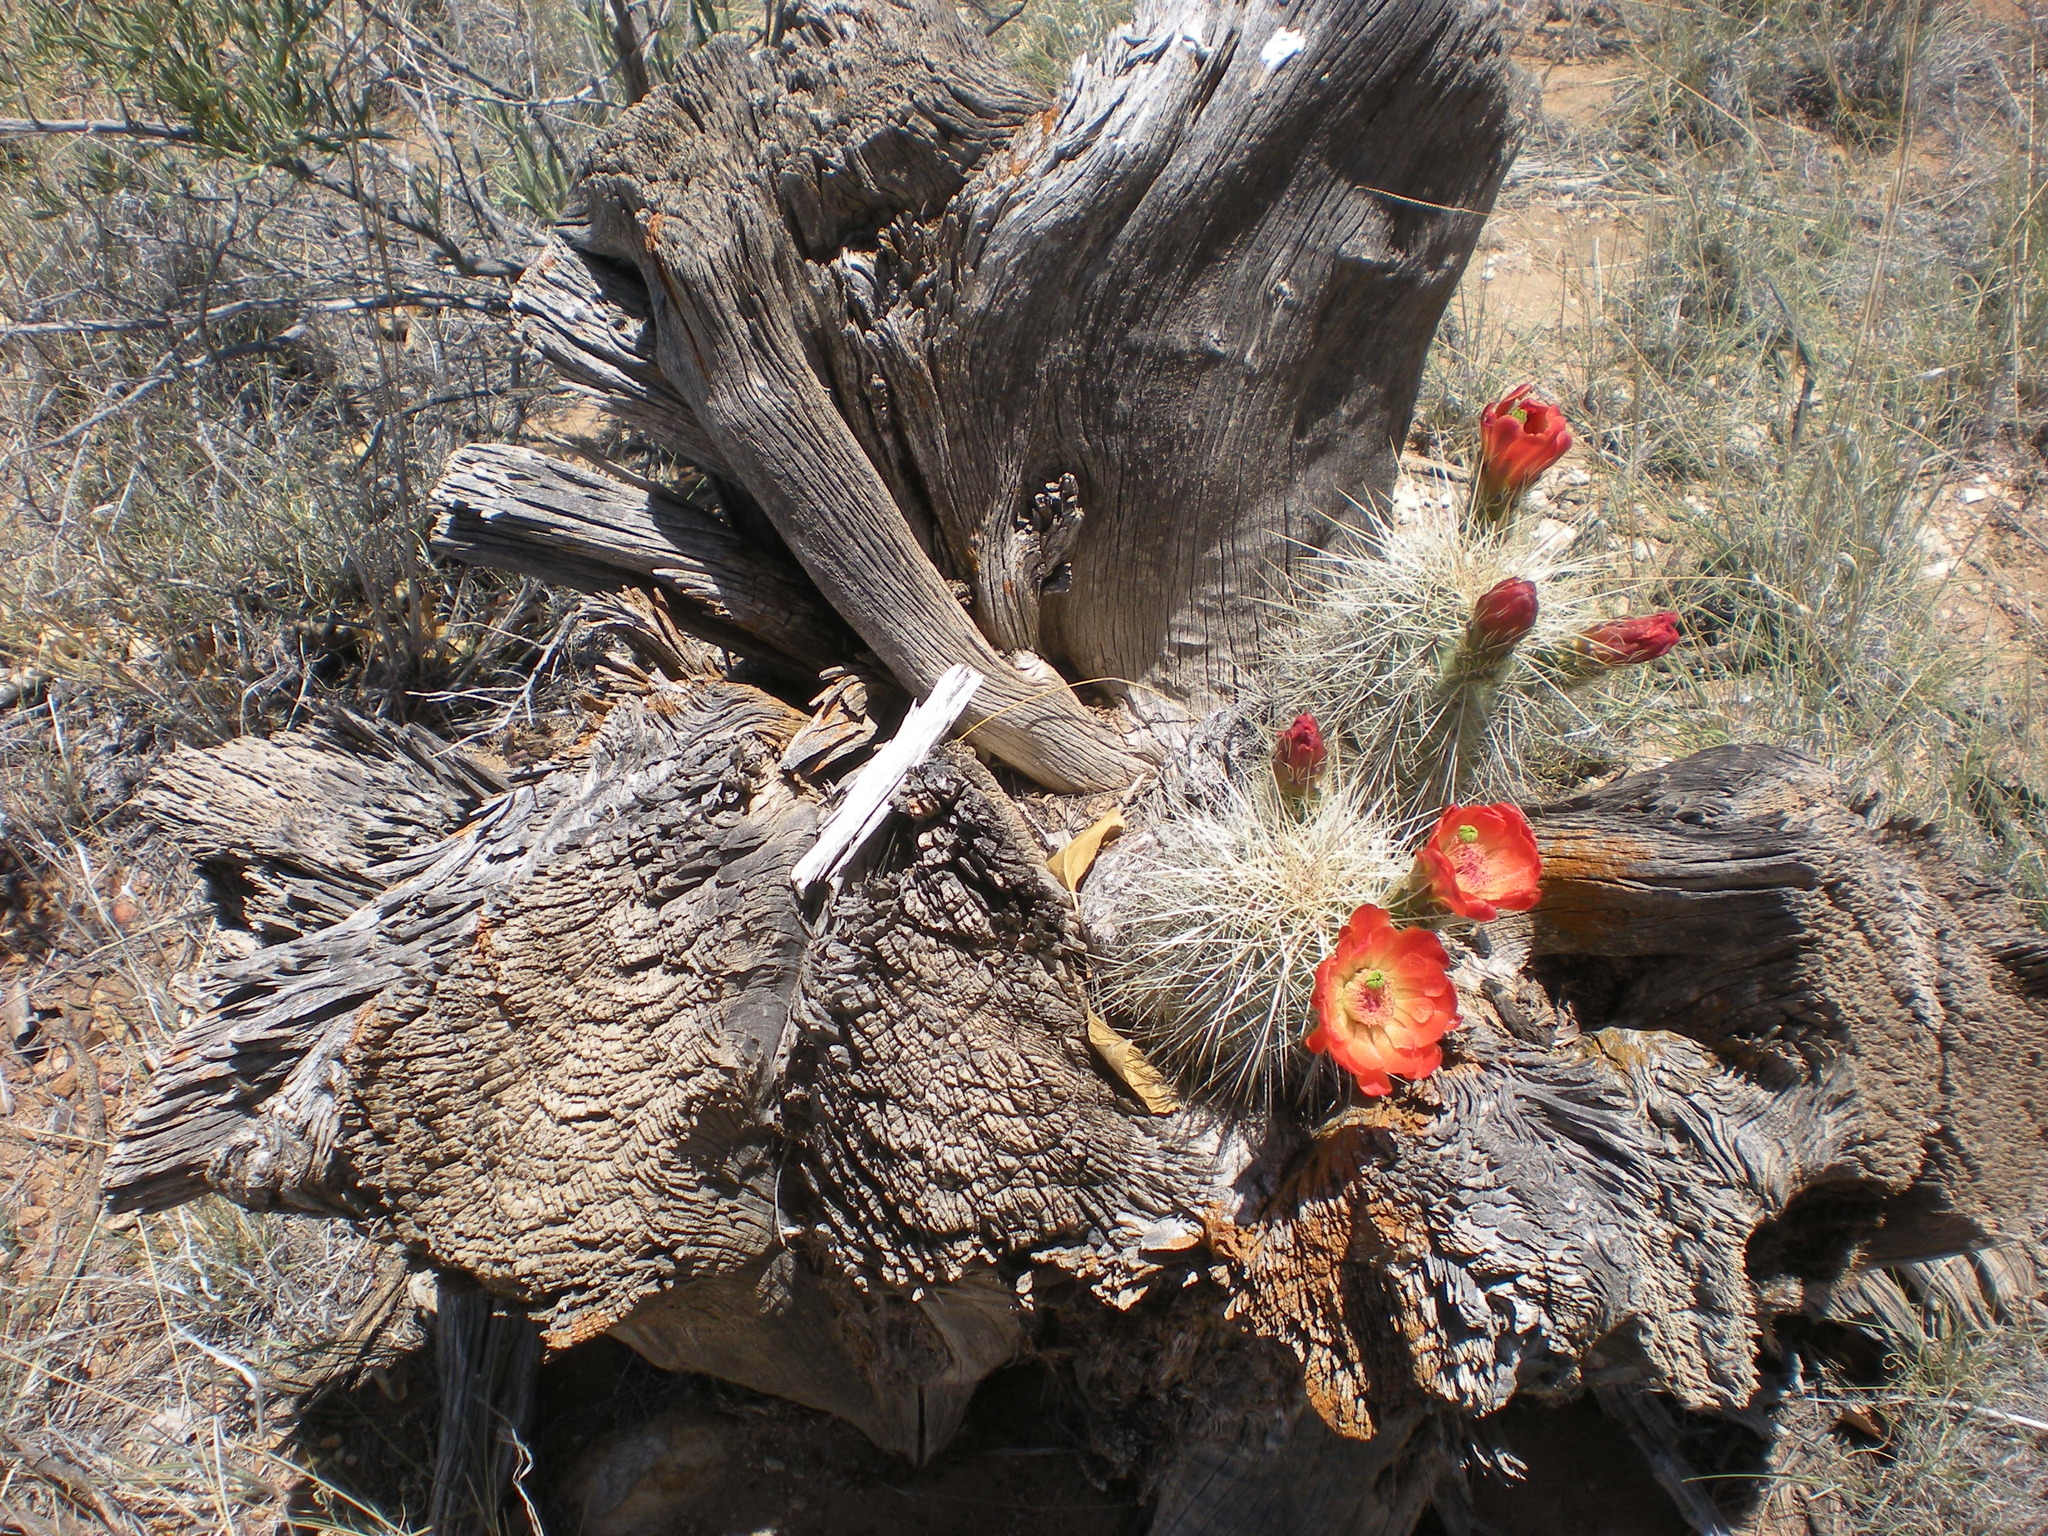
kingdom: Plantae
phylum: Tracheophyta
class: Magnoliopsida
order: Caryophyllales
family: Cactaceae
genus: Echinocereus
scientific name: Echinocereus coccineus
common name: Scarlet hedgehog cactus
